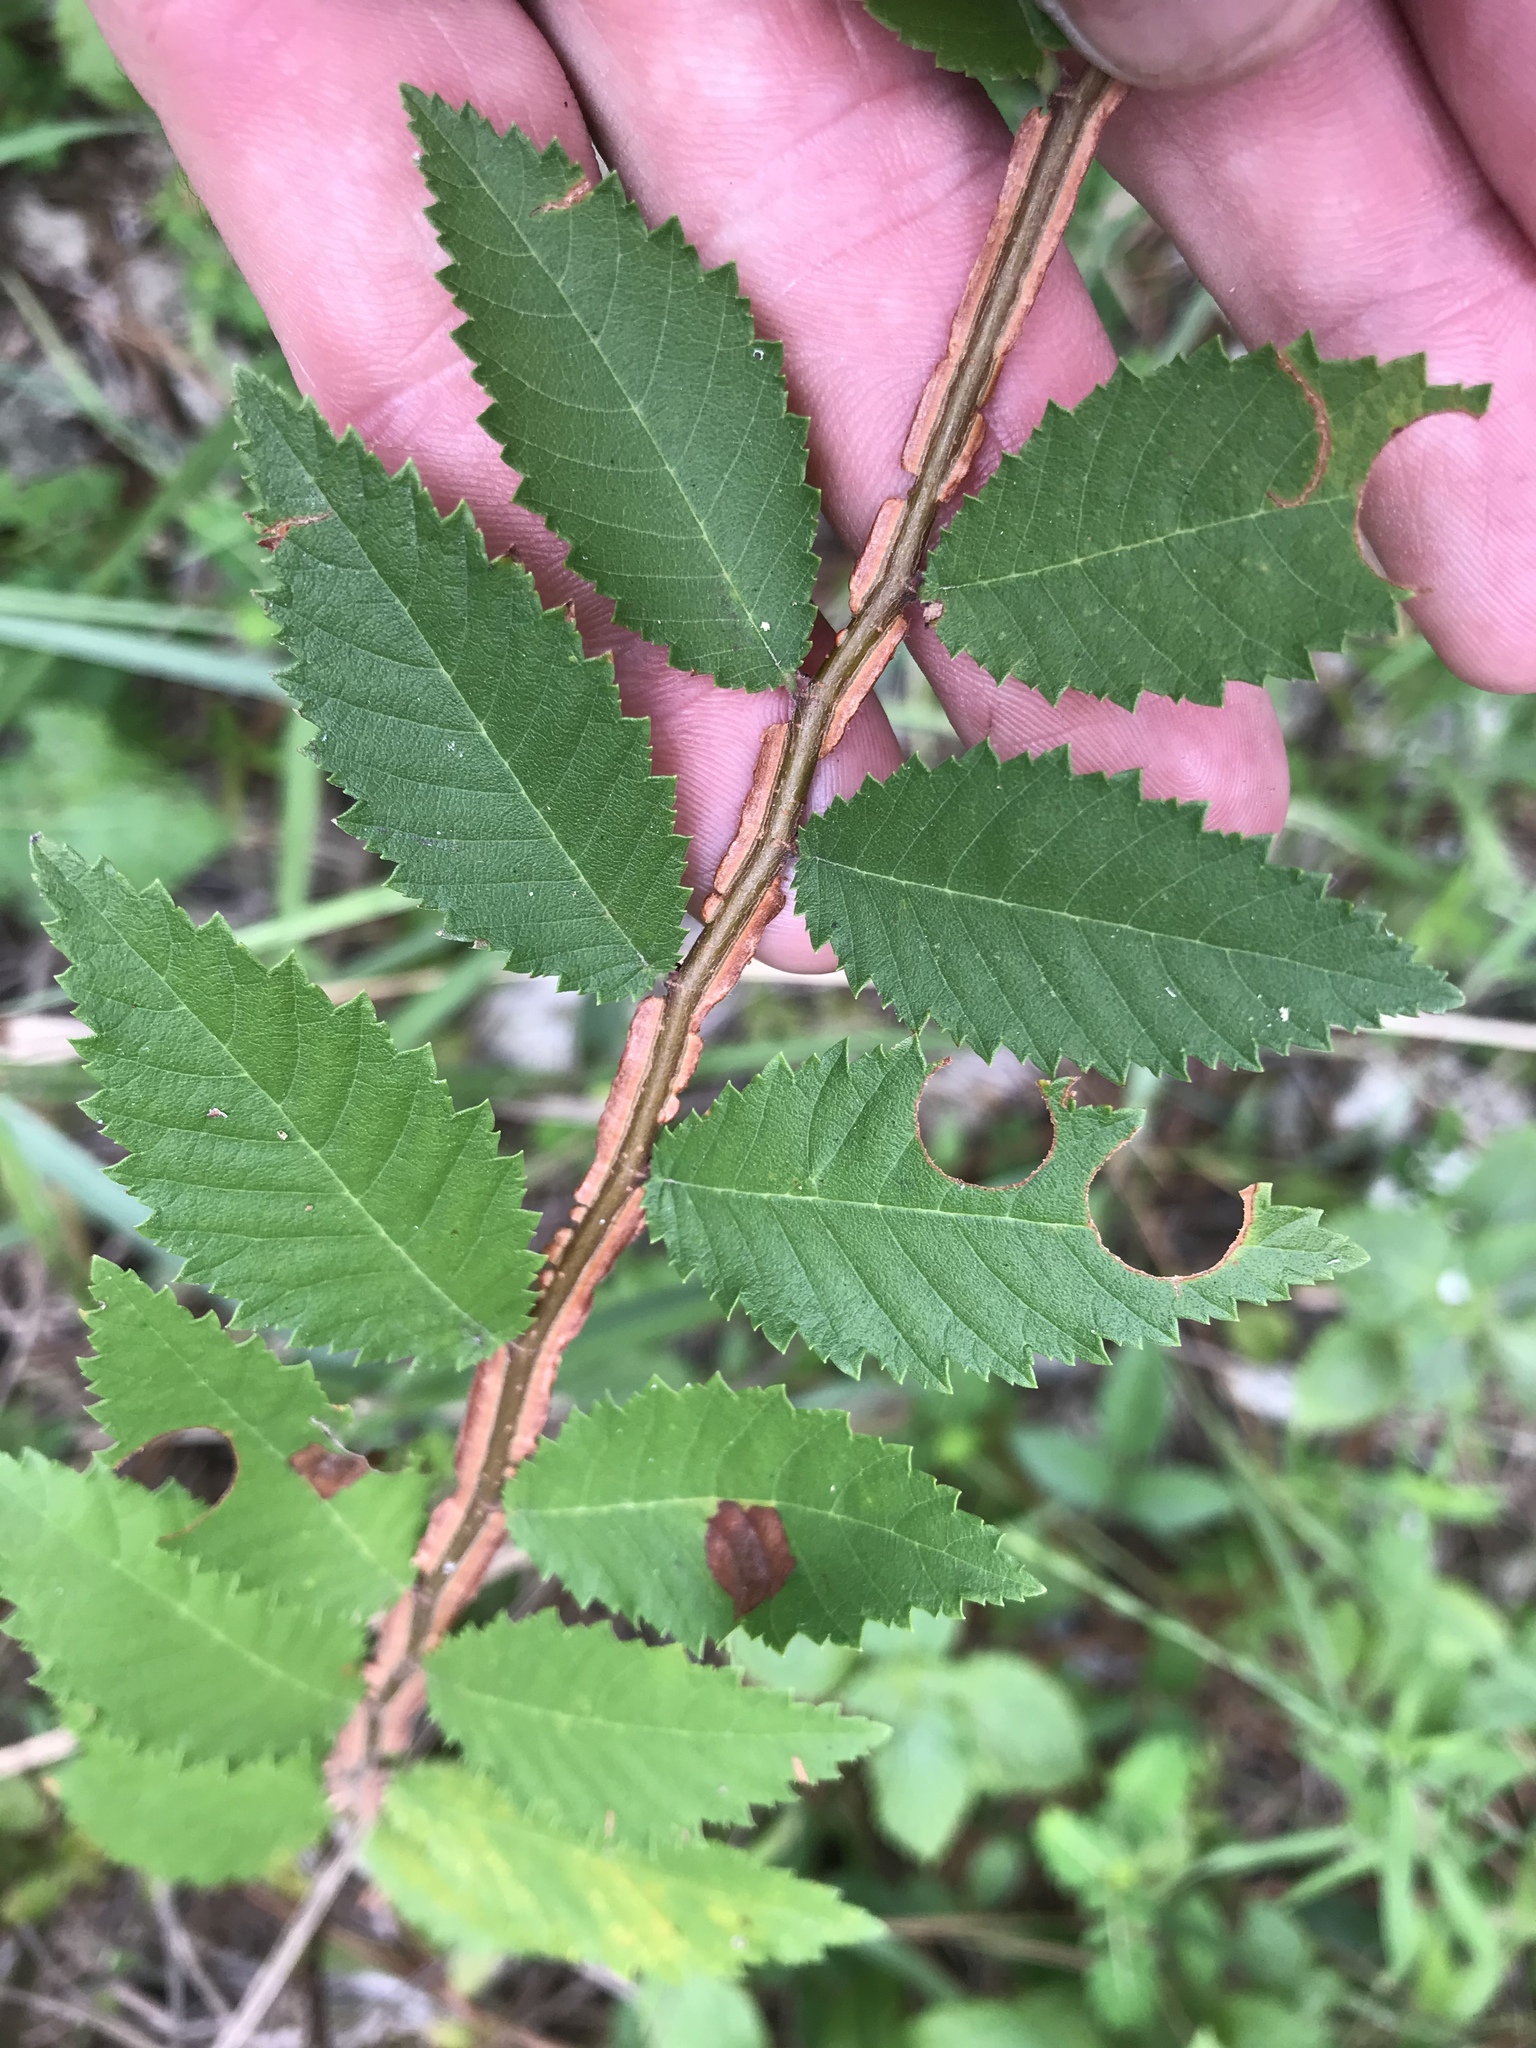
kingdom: Plantae
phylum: Tracheophyta
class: Magnoliopsida
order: Rosales
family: Ulmaceae
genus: Ulmus
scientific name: Ulmus alata
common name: Winged elm
